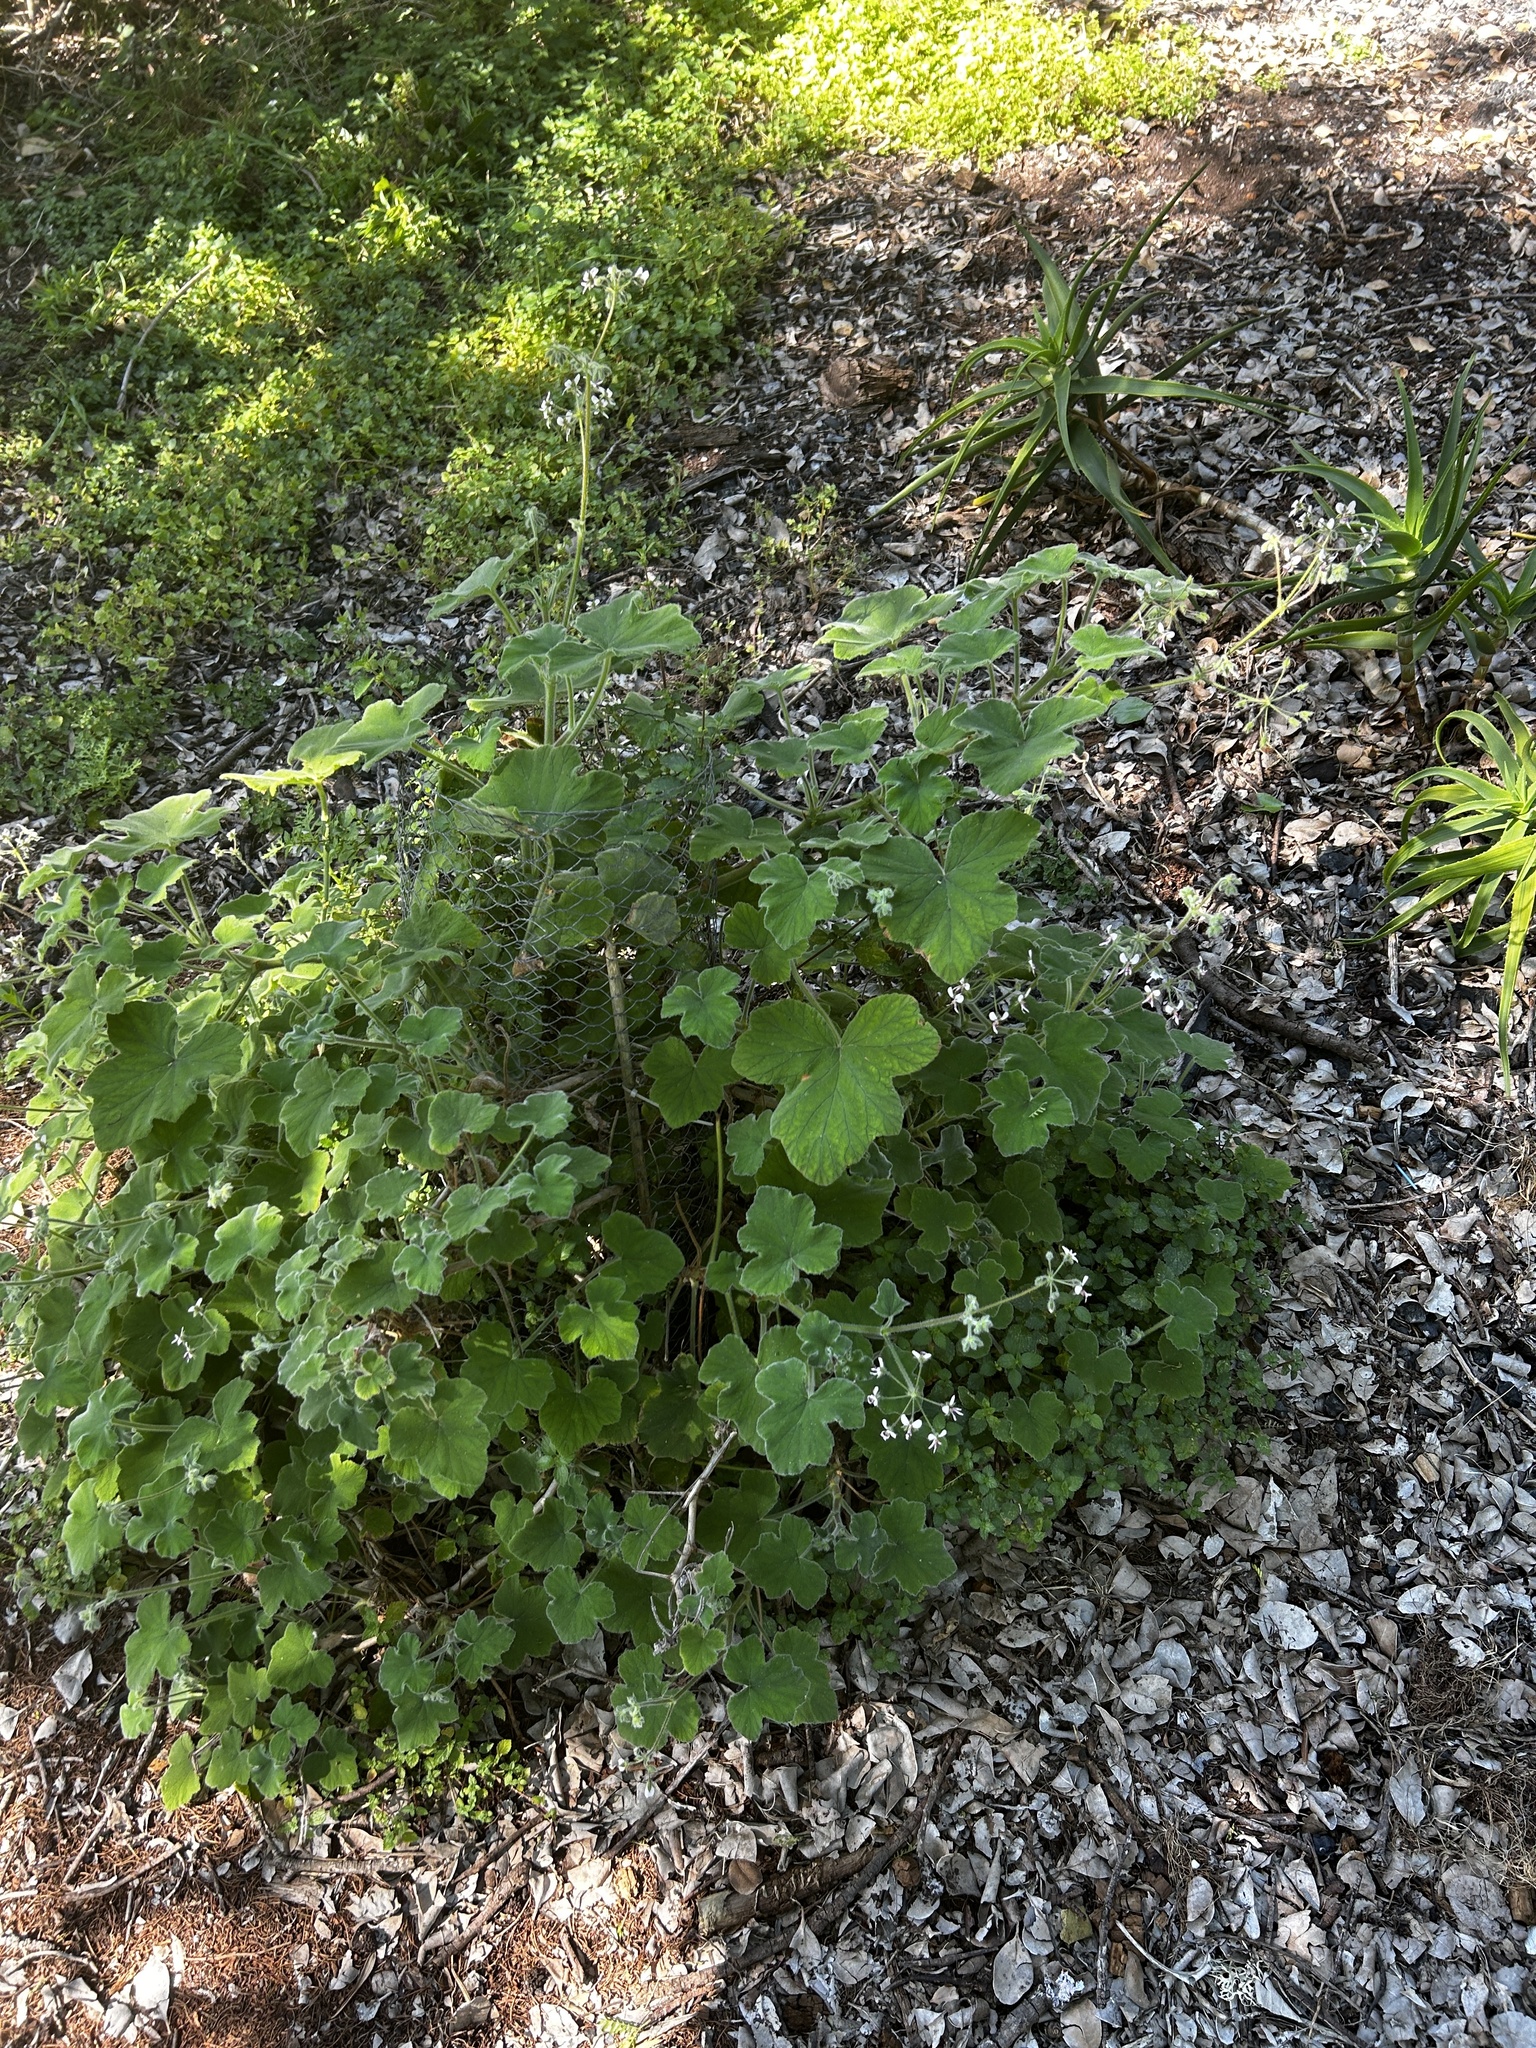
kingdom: Plantae
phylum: Tracheophyta
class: Magnoliopsida
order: Geraniales
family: Geraniaceae
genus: Pelargonium
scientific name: Pelargonium tomentosum
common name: Peppermint-scented geranium
